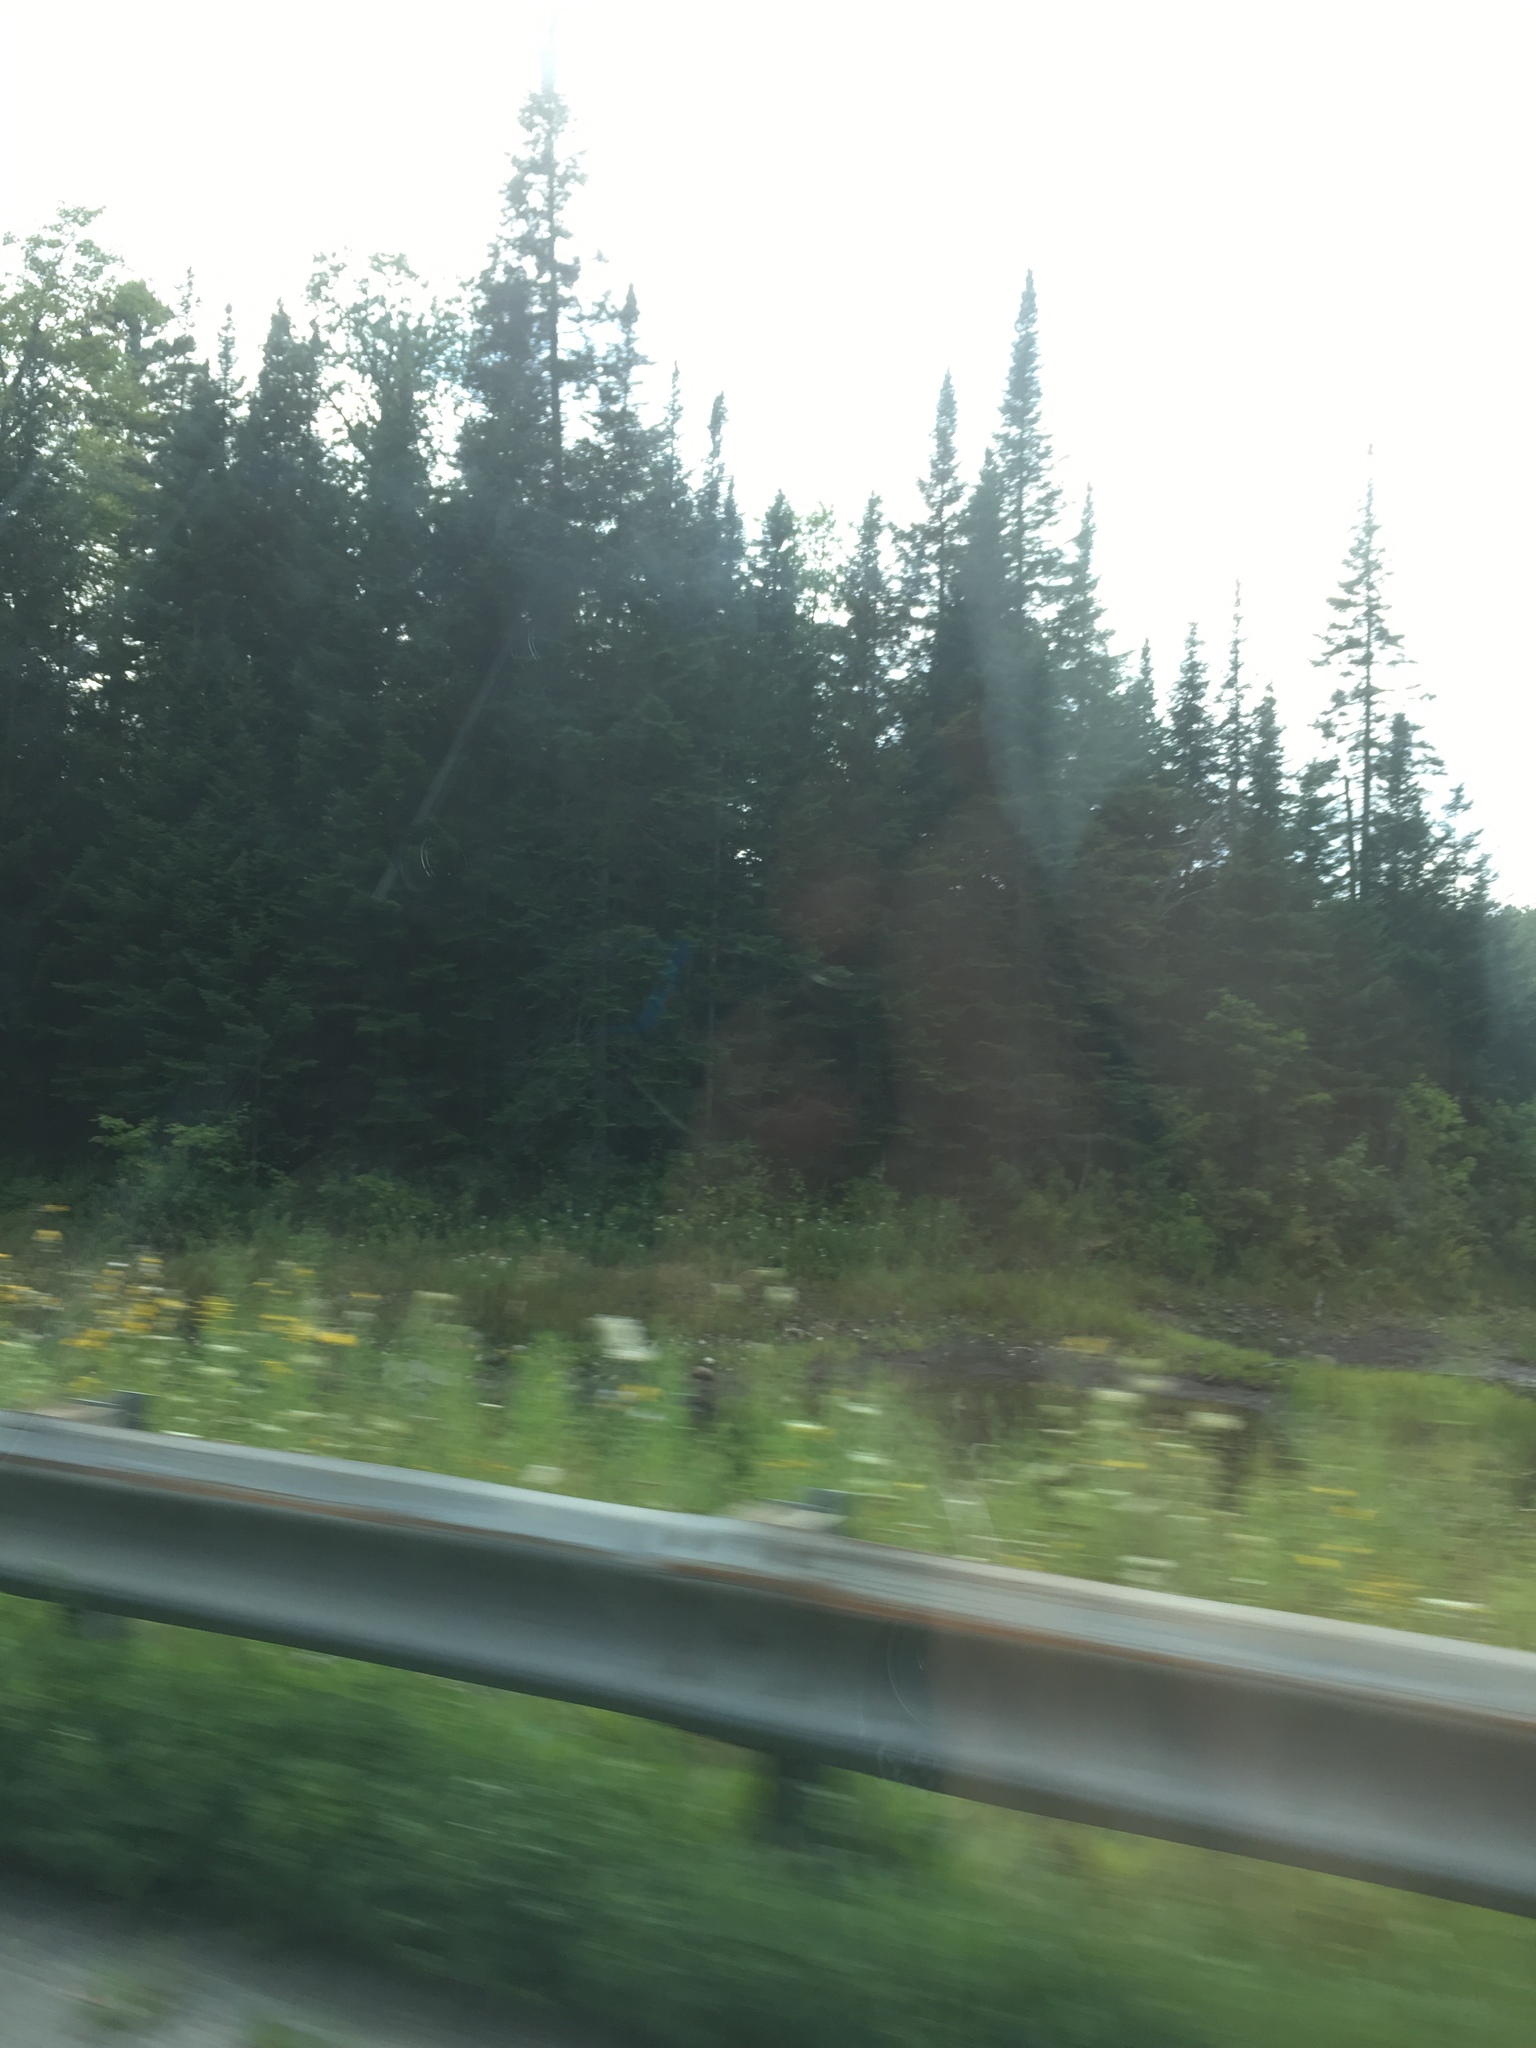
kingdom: Plantae
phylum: Tracheophyta
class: Pinopsida
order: Pinales
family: Pinaceae
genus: Abies
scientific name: Abies balsamea
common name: Balsam fir
